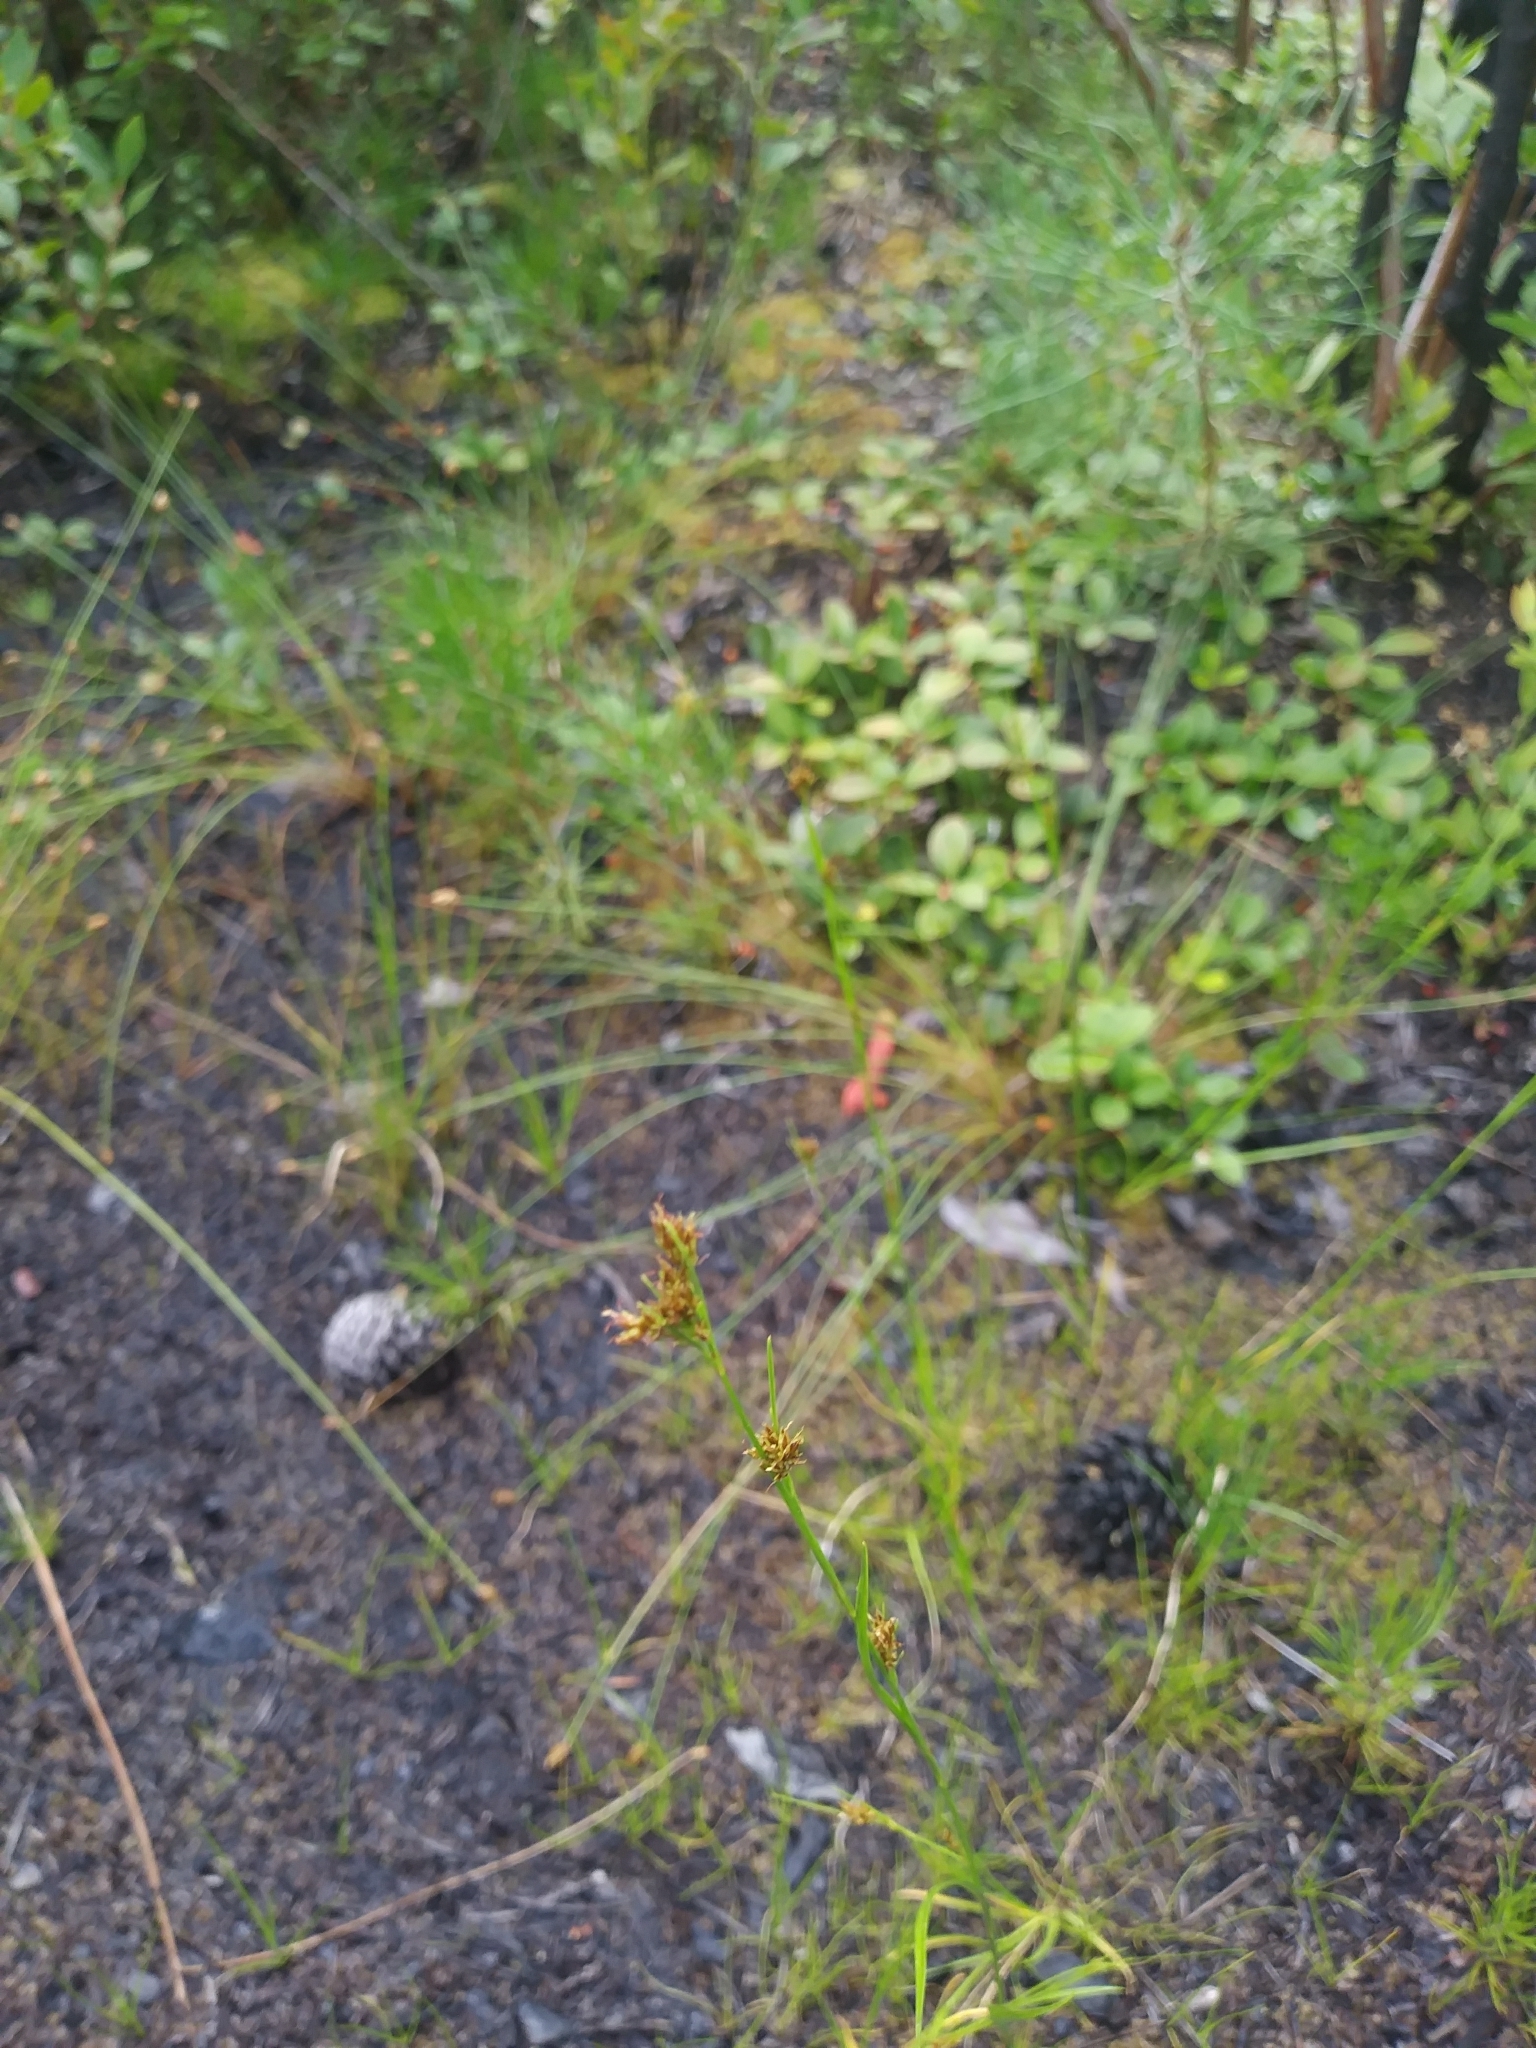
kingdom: Plantae
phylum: Tracheophyta
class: Liliopsida
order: Poales
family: Cyperaceae
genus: Rhynchospora
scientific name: Rhynchospora knieskernii
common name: Knieskern's beak-rush
